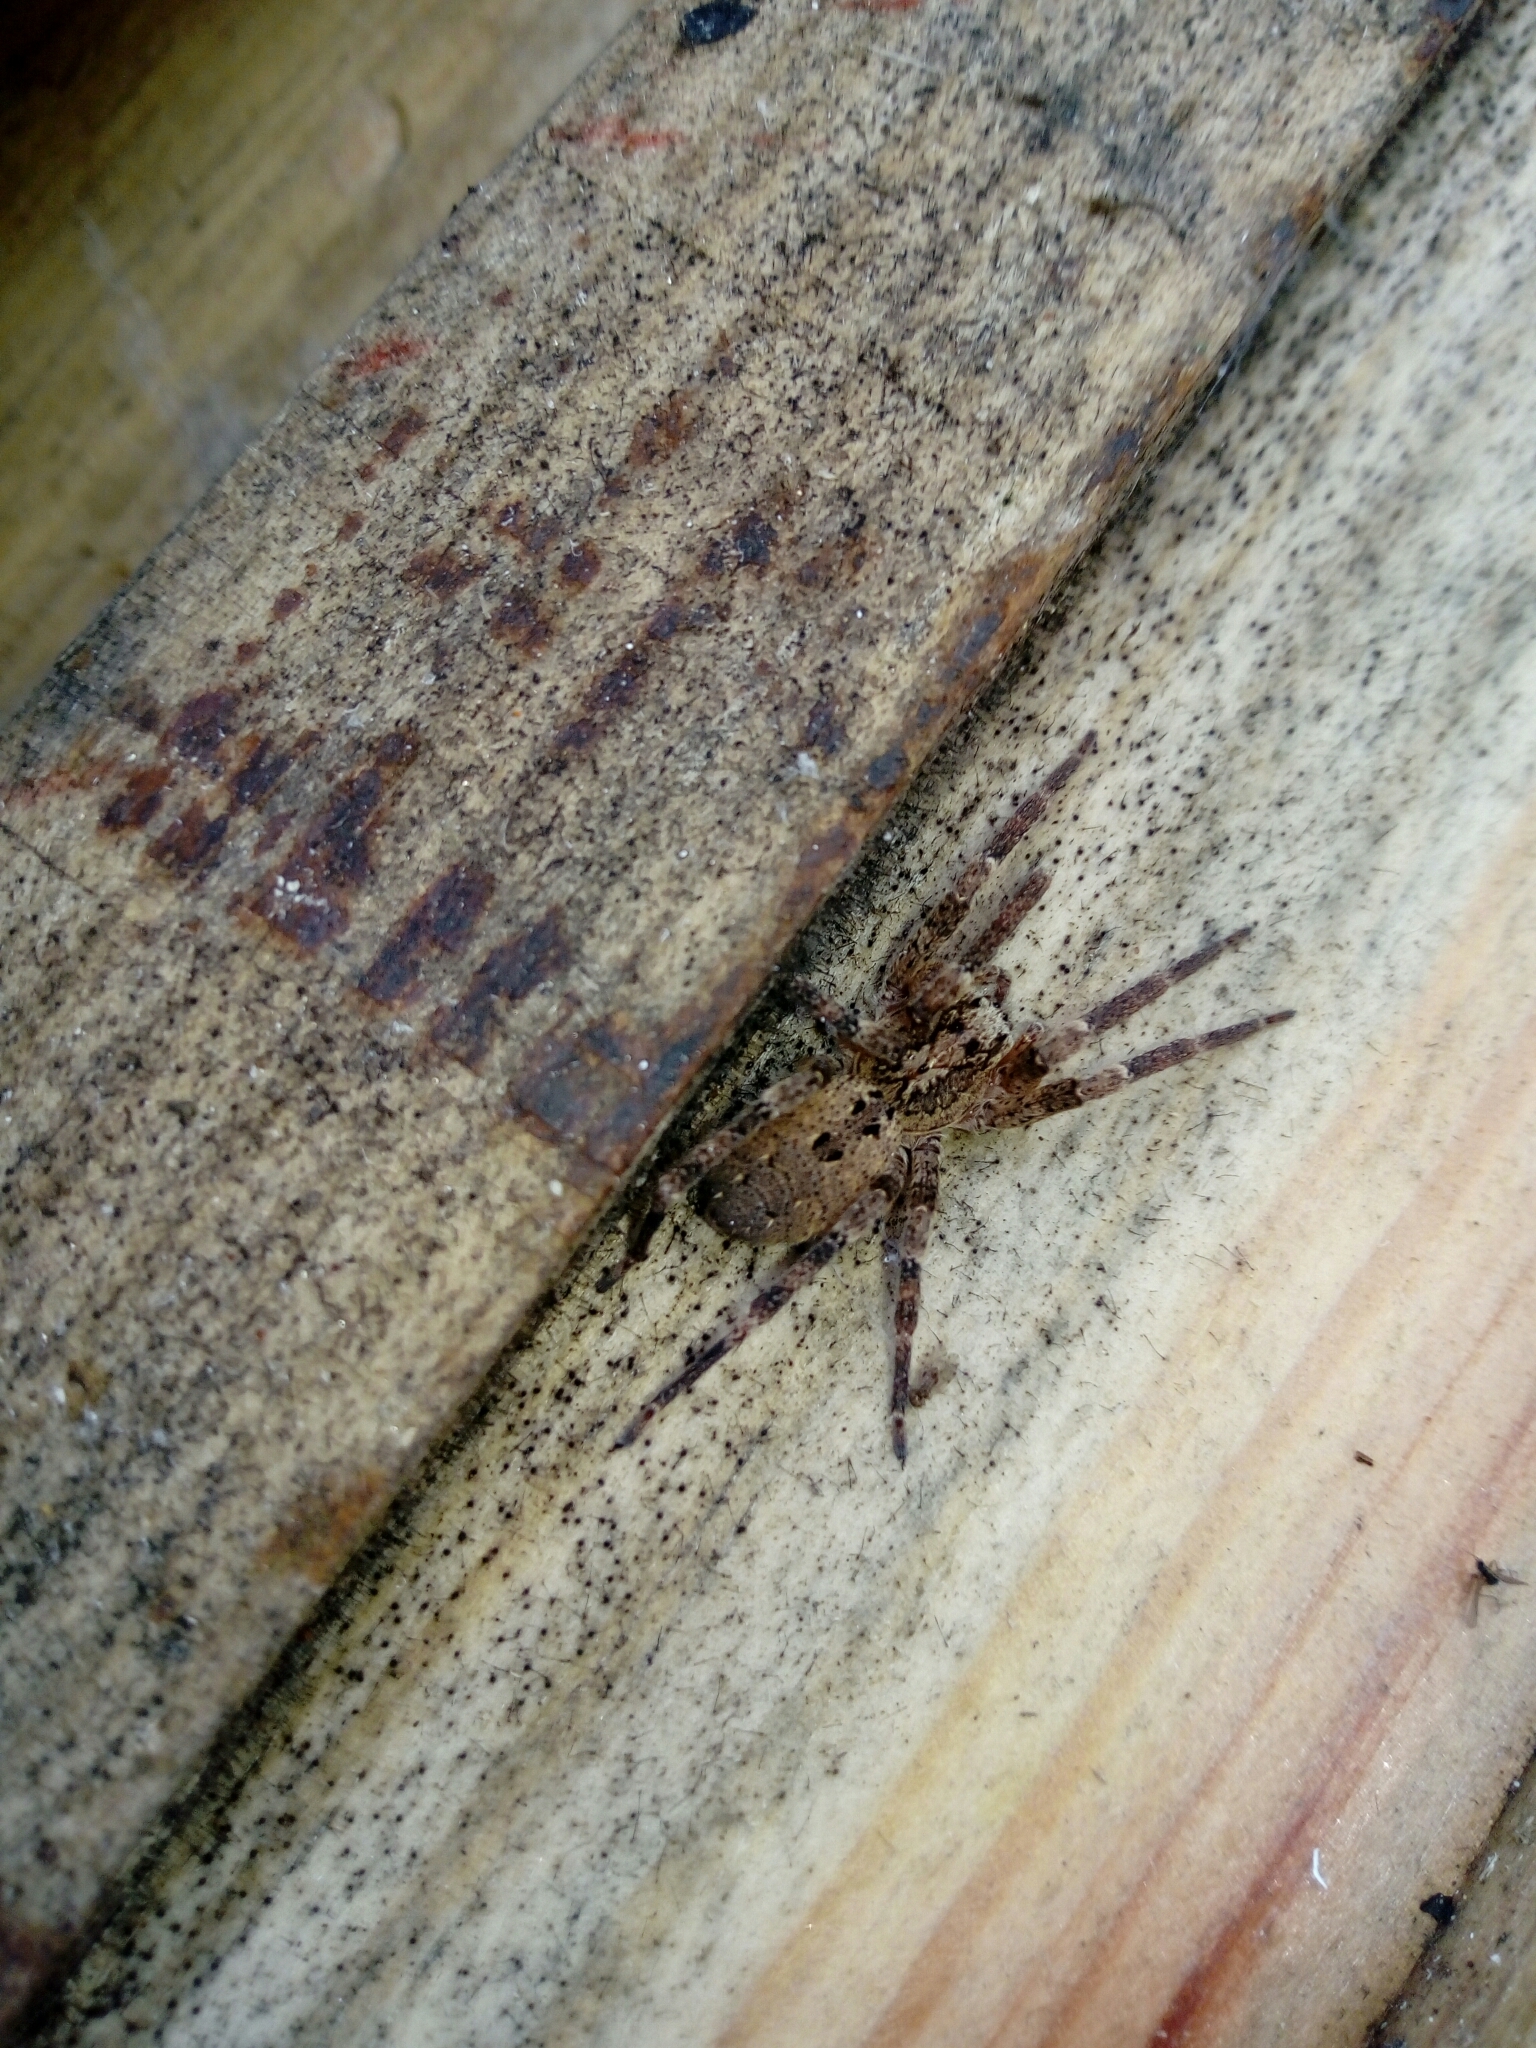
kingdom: Animalia
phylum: Arthropoda
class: Arachnida
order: Araneae
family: Zoropsidae
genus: Zoropsis
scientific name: Zoropsis spinimana
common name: Zoropsid spider
